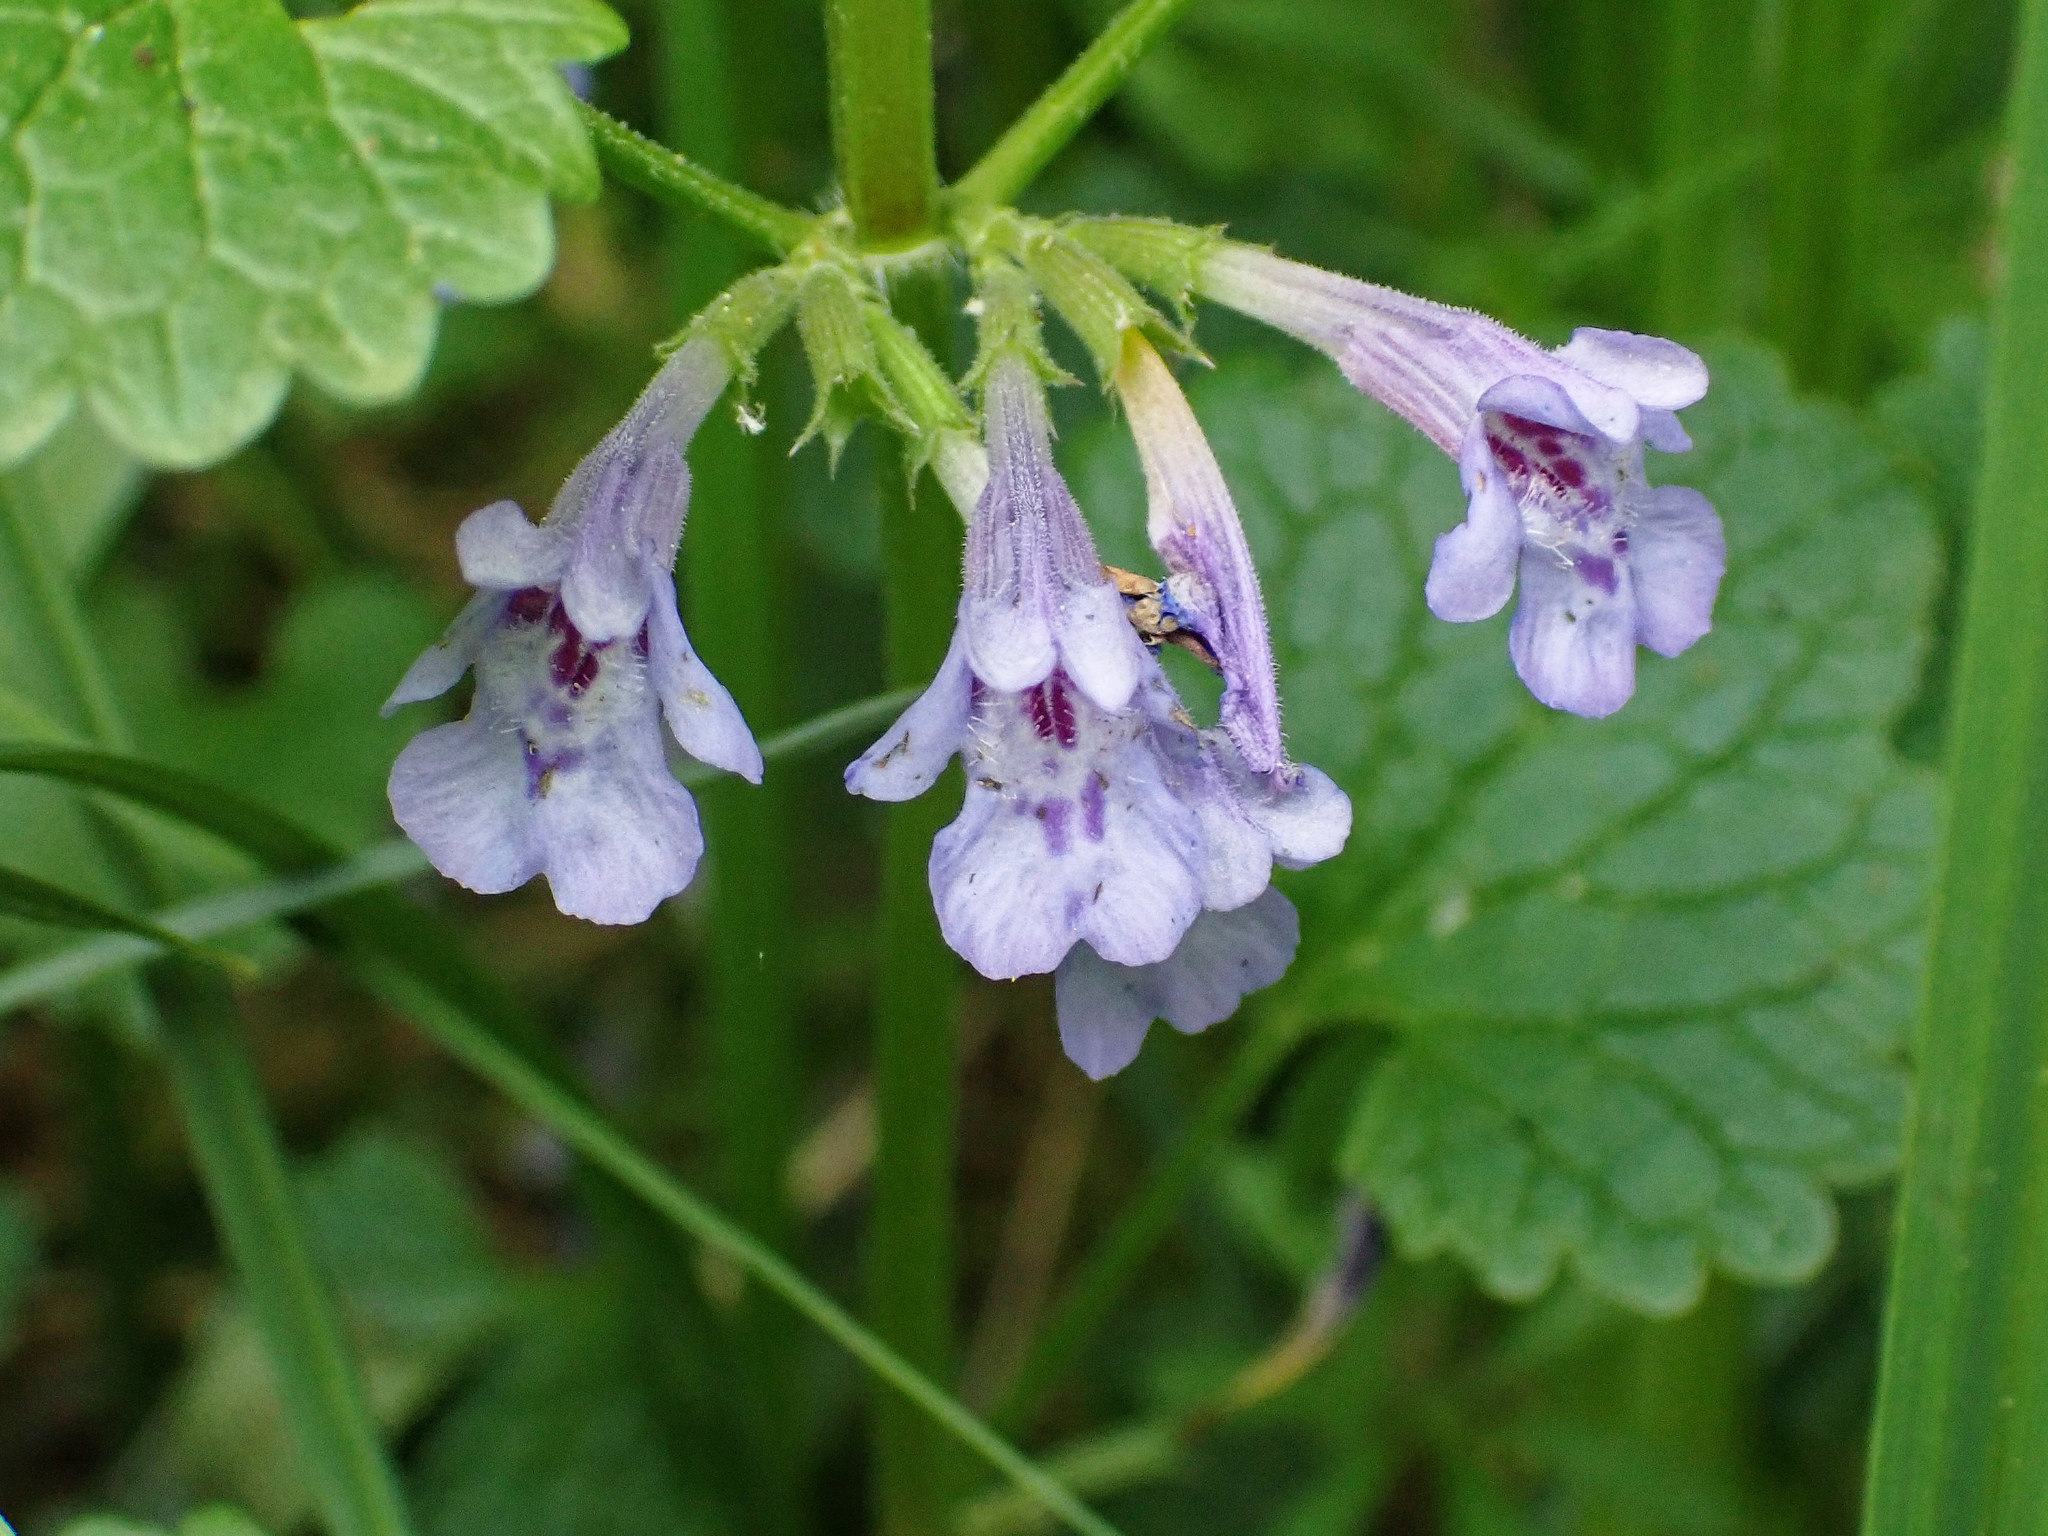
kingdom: Plantae
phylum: Tracheophyta
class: Magnoliopsida
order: Lamiales
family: Lamiaceae
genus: Glechoma
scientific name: Glechoma hederacea
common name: Ground ivy
